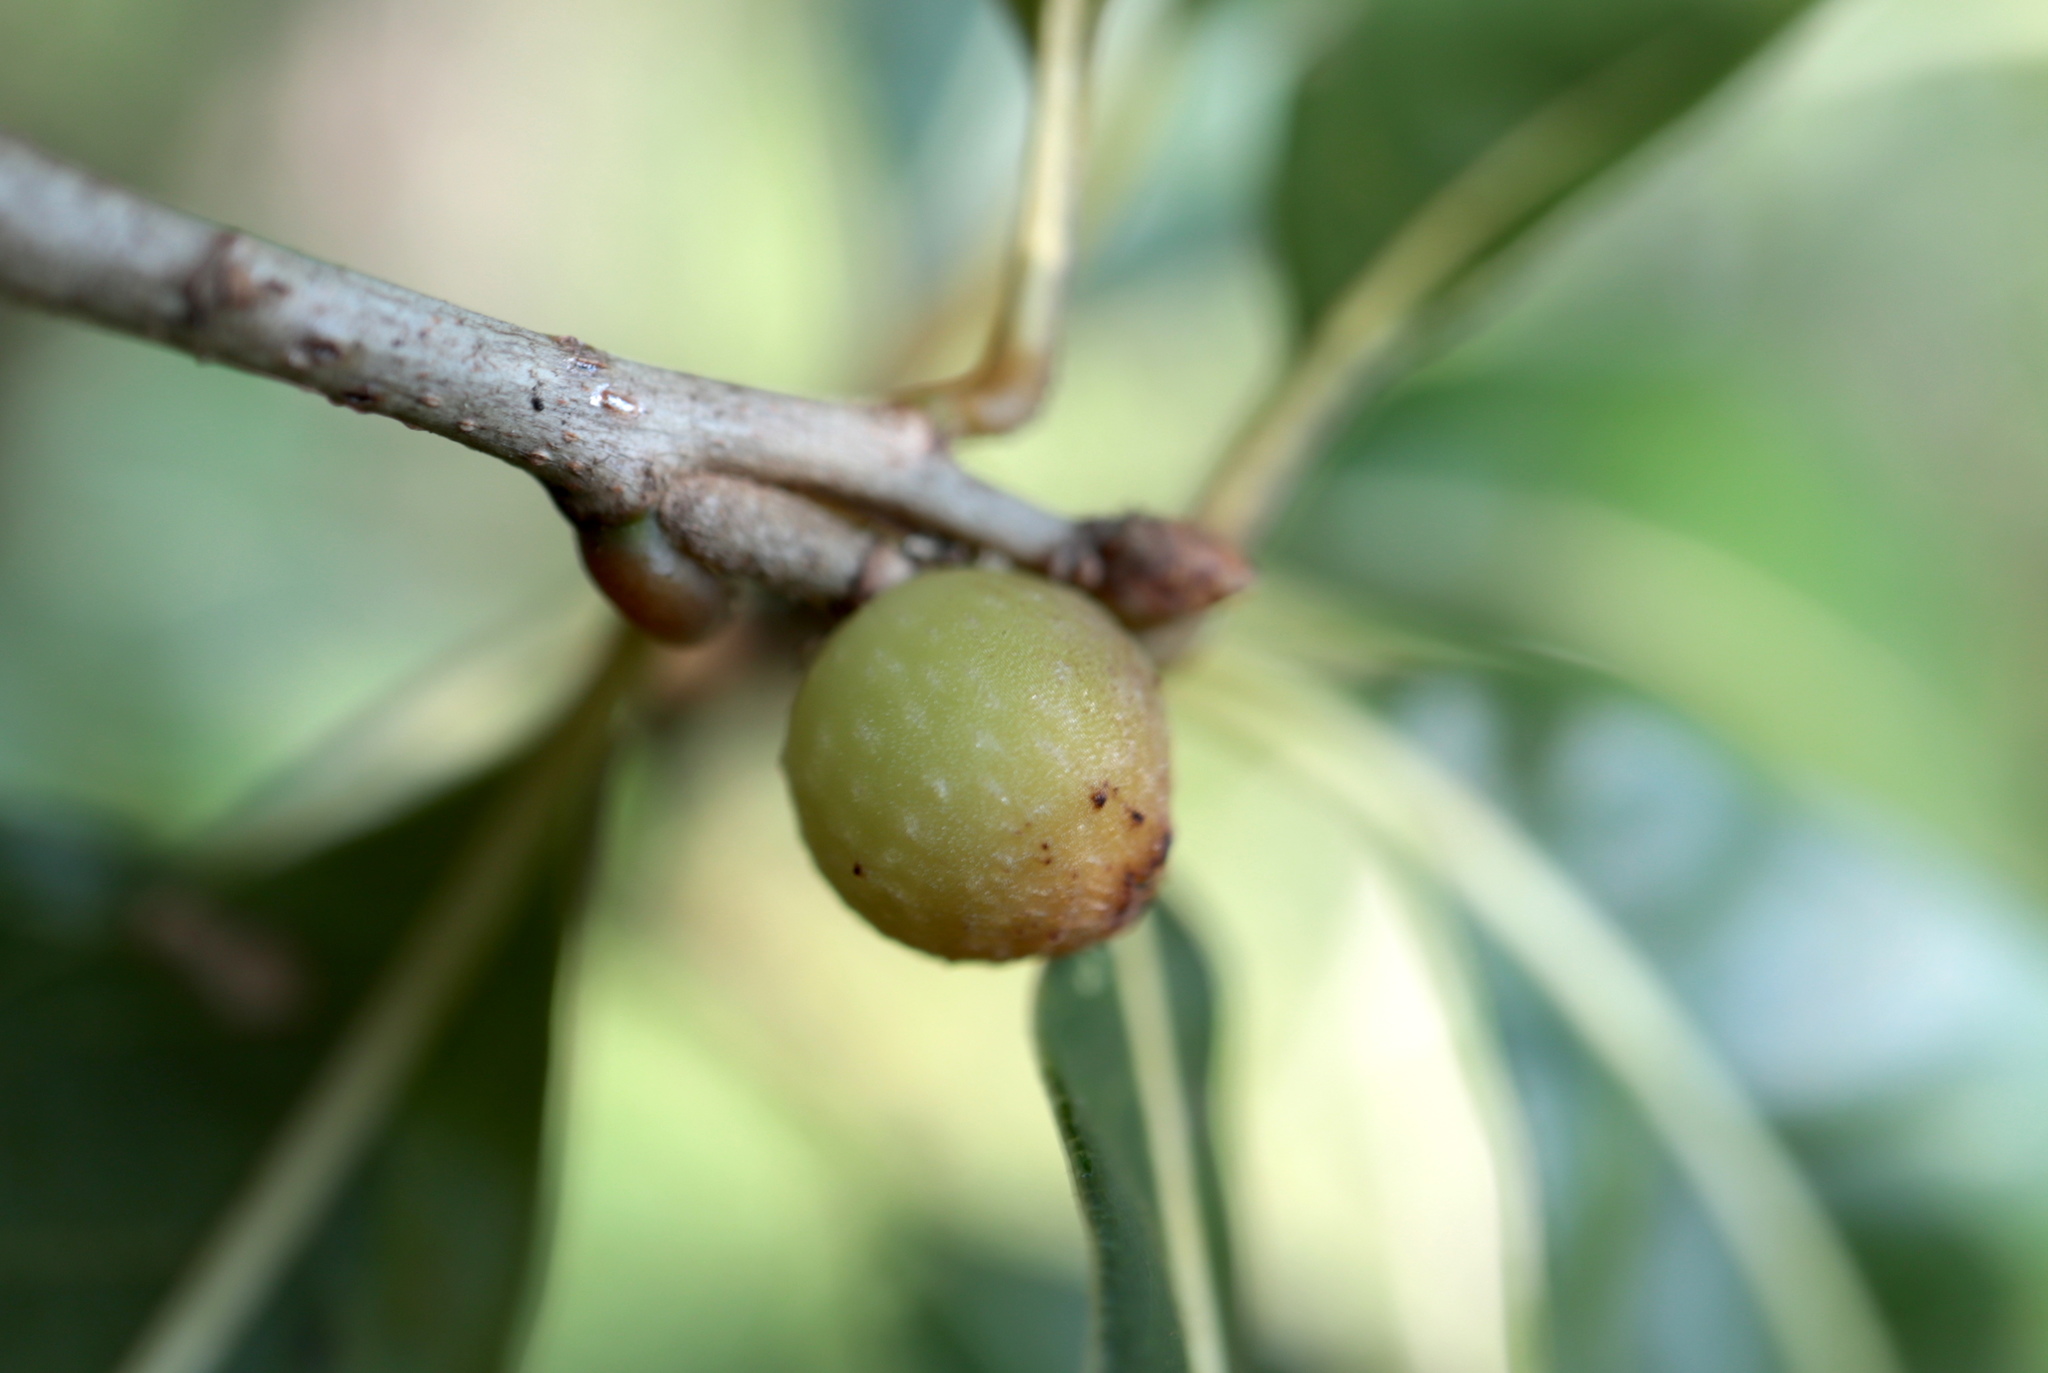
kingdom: Animalia
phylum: Arthropoda
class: Insecta
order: Hymenoptera
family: Cynipidae
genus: Callirhytis
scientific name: Callirhytis
